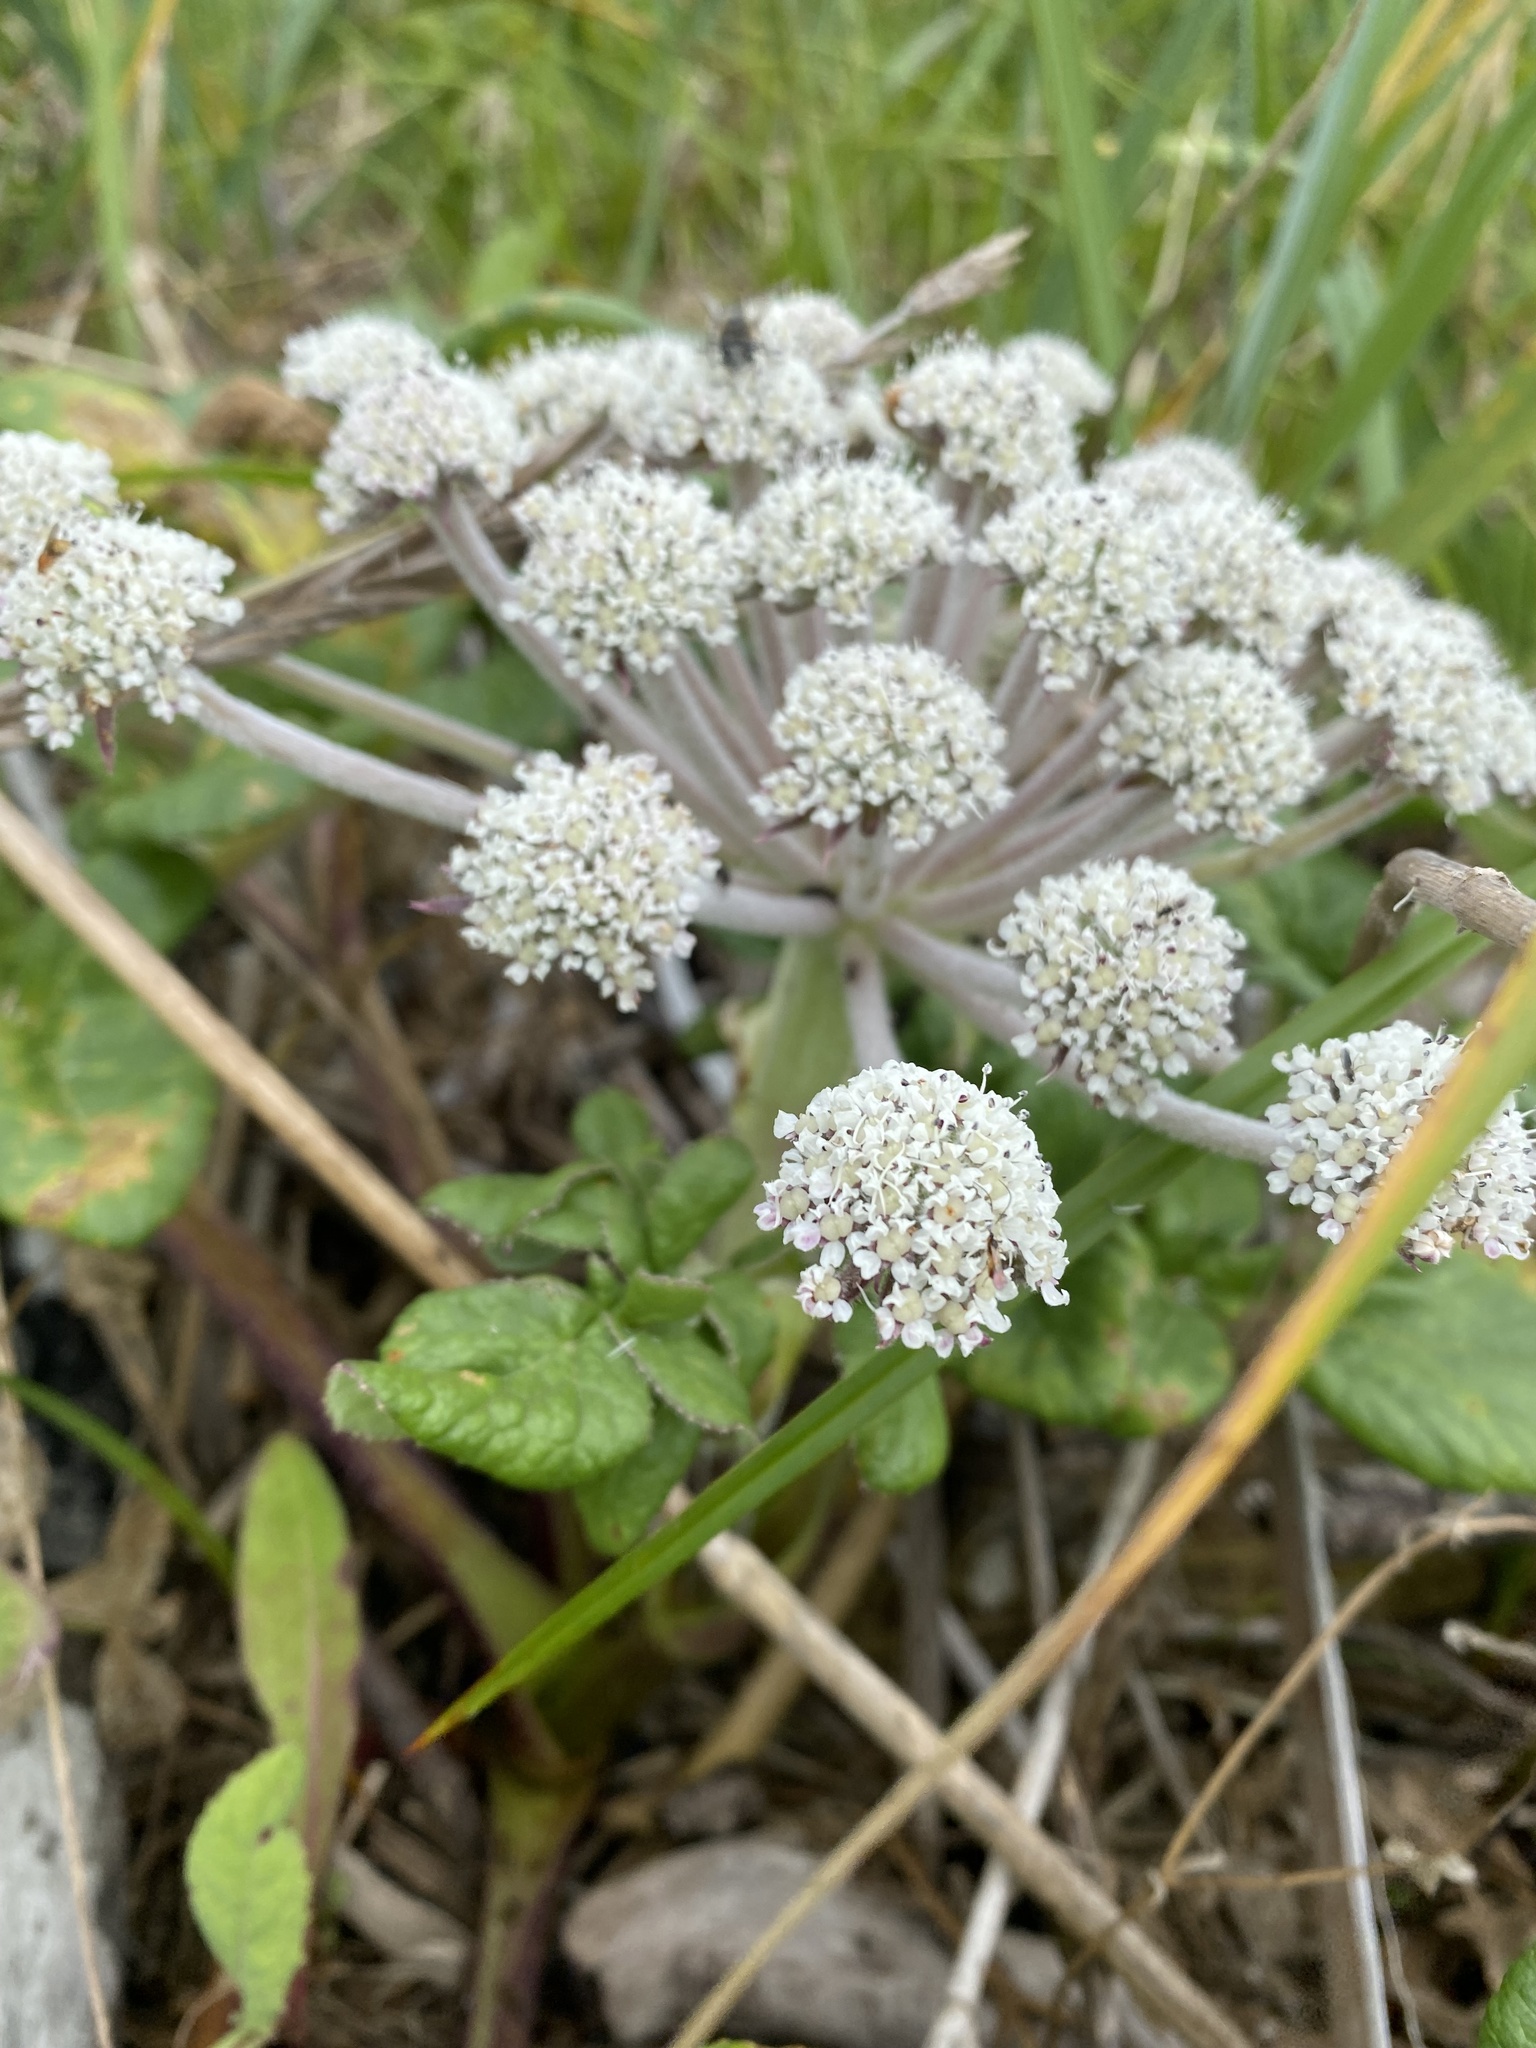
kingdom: Plantae
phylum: Tracheophyta
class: Magnoliopsida
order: Apiales
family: Apiaceae
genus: Glehnia
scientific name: Glehnia littoralis
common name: Beach silvertop
